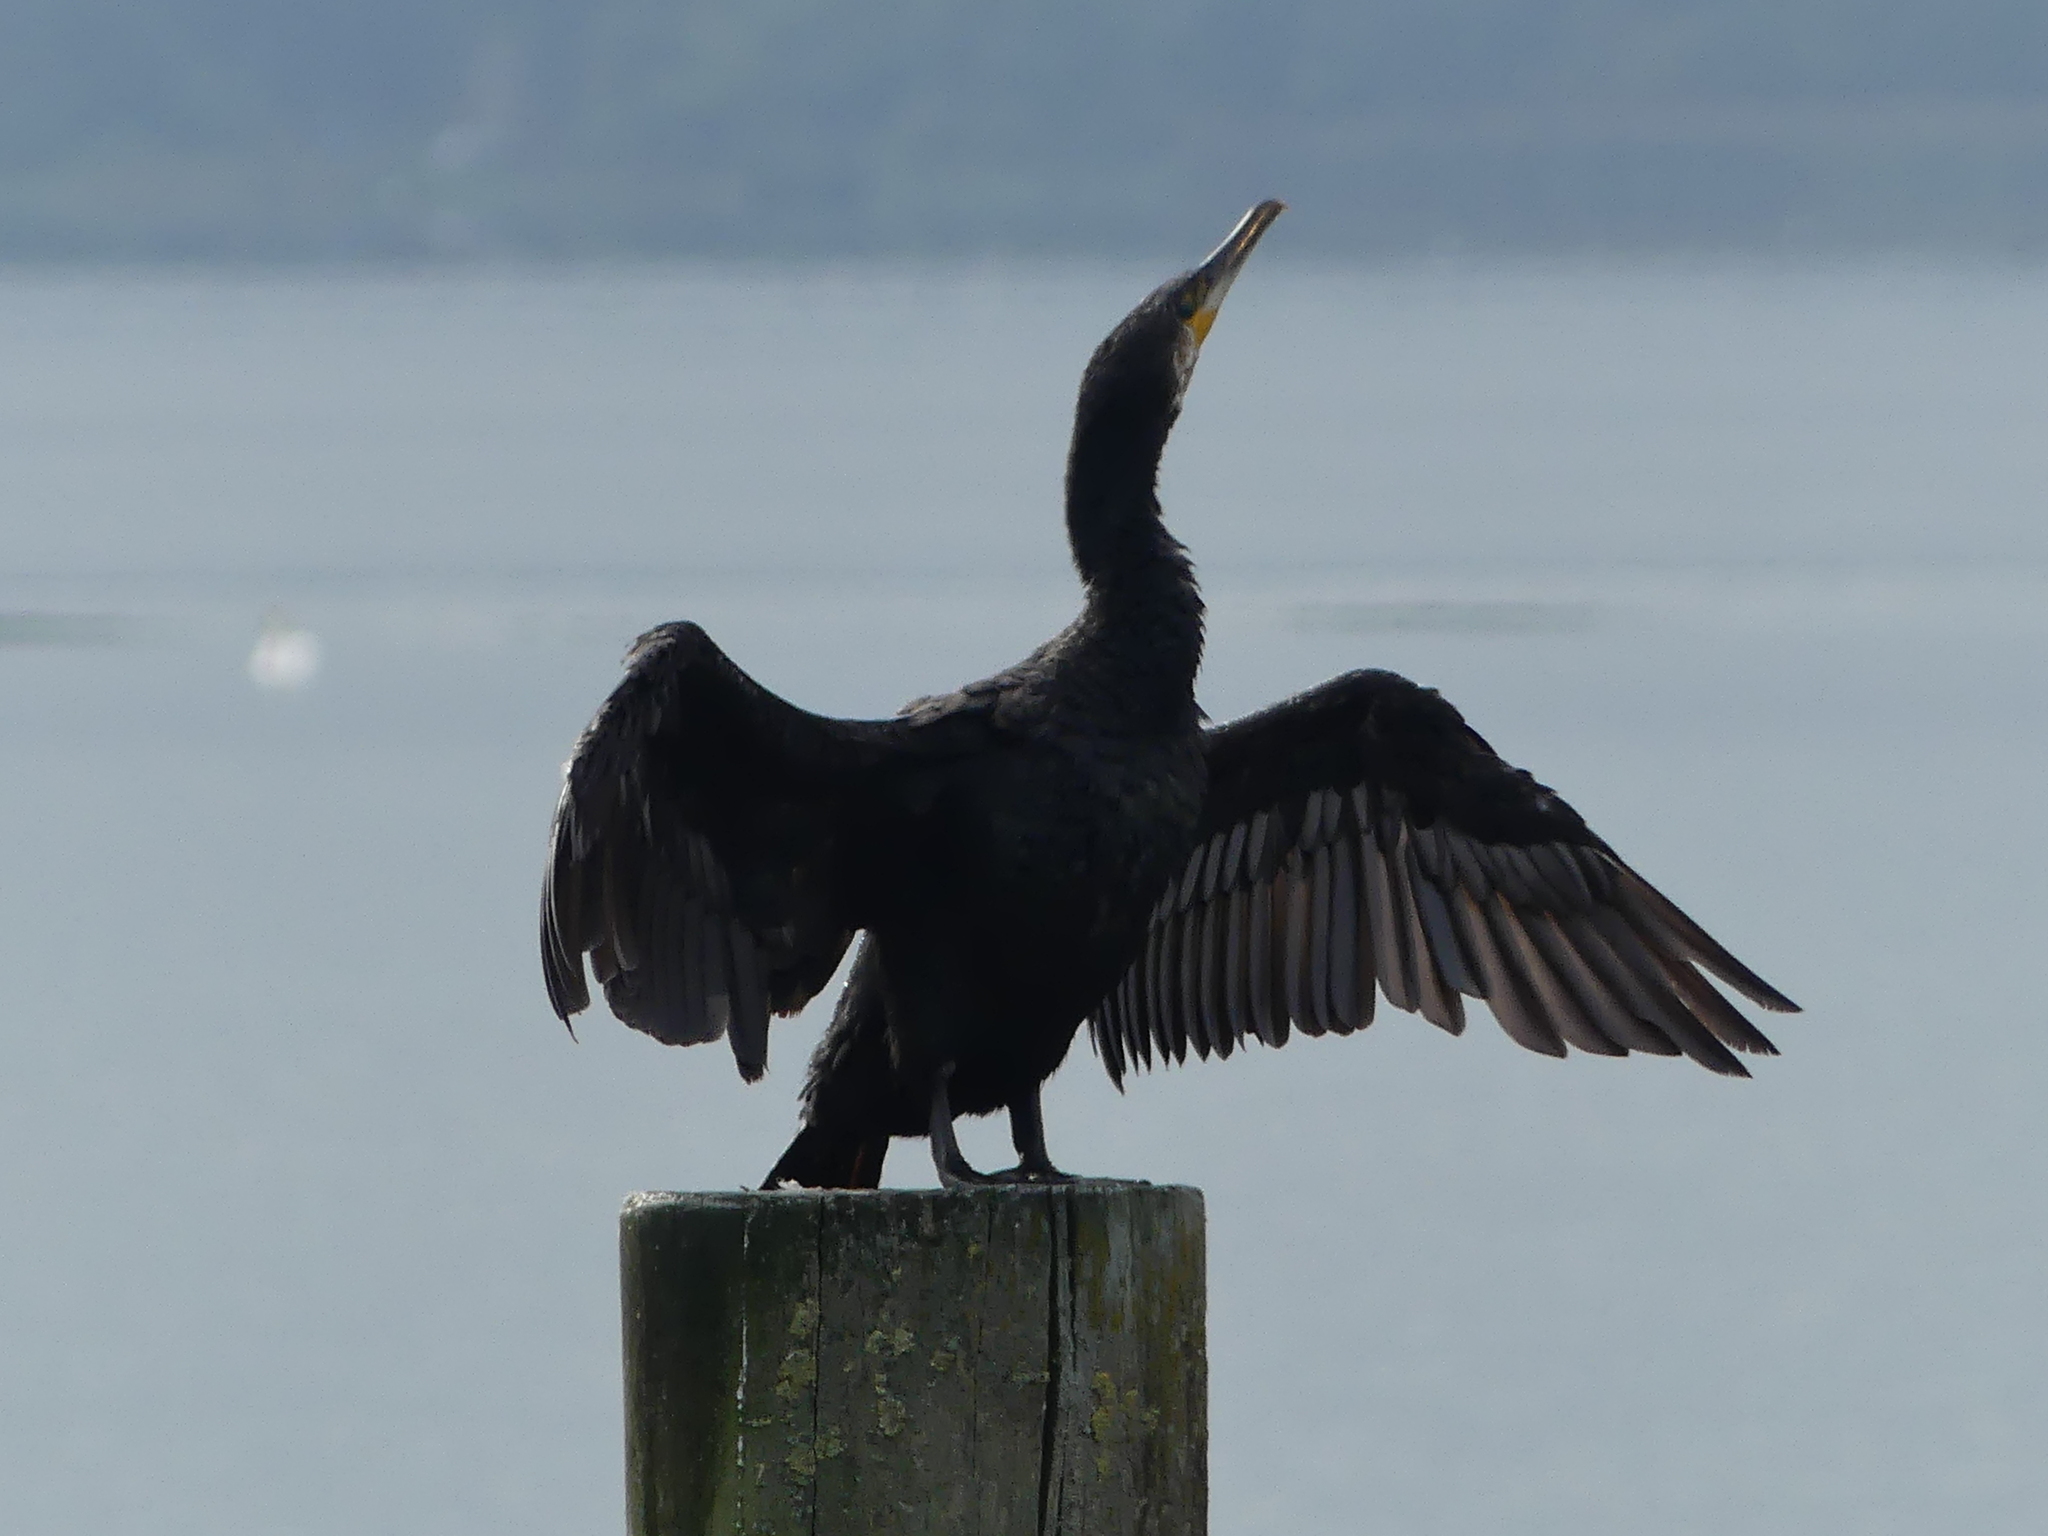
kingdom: Animalia
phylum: Chordata
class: Aves
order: Suliformes
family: Phalacrocoracidae
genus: Phalacrocorax
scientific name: Phalacrocorax carbo
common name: Great cormorant
